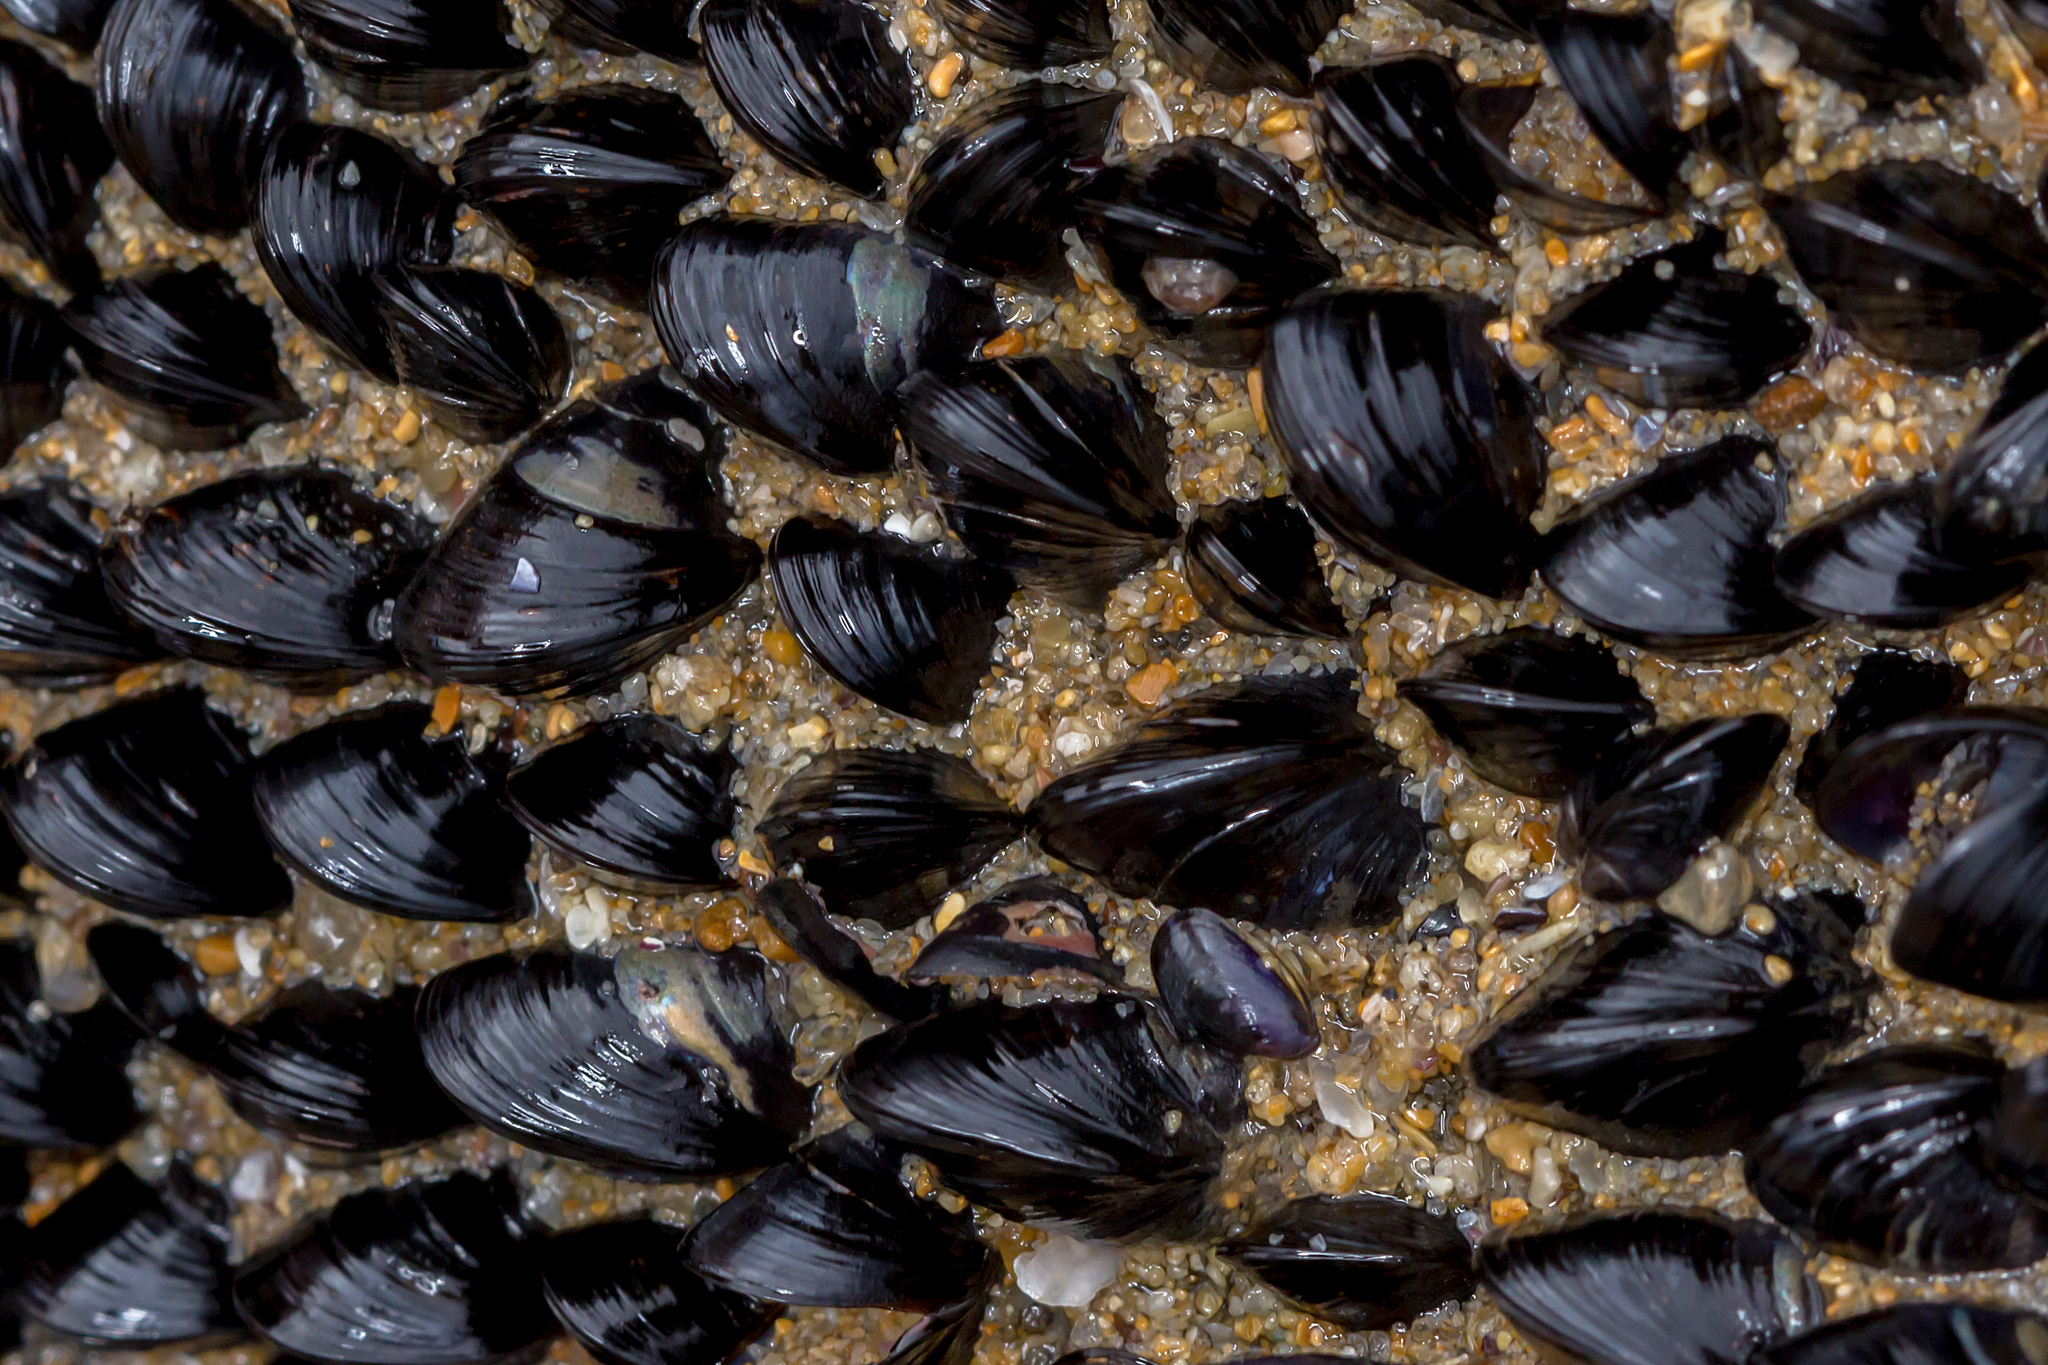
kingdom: Animalia
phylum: Mollusca
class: Bivalvia
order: Mytilida
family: Mytilidae
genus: Xenostrobus
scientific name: Xenostrobus pulex
